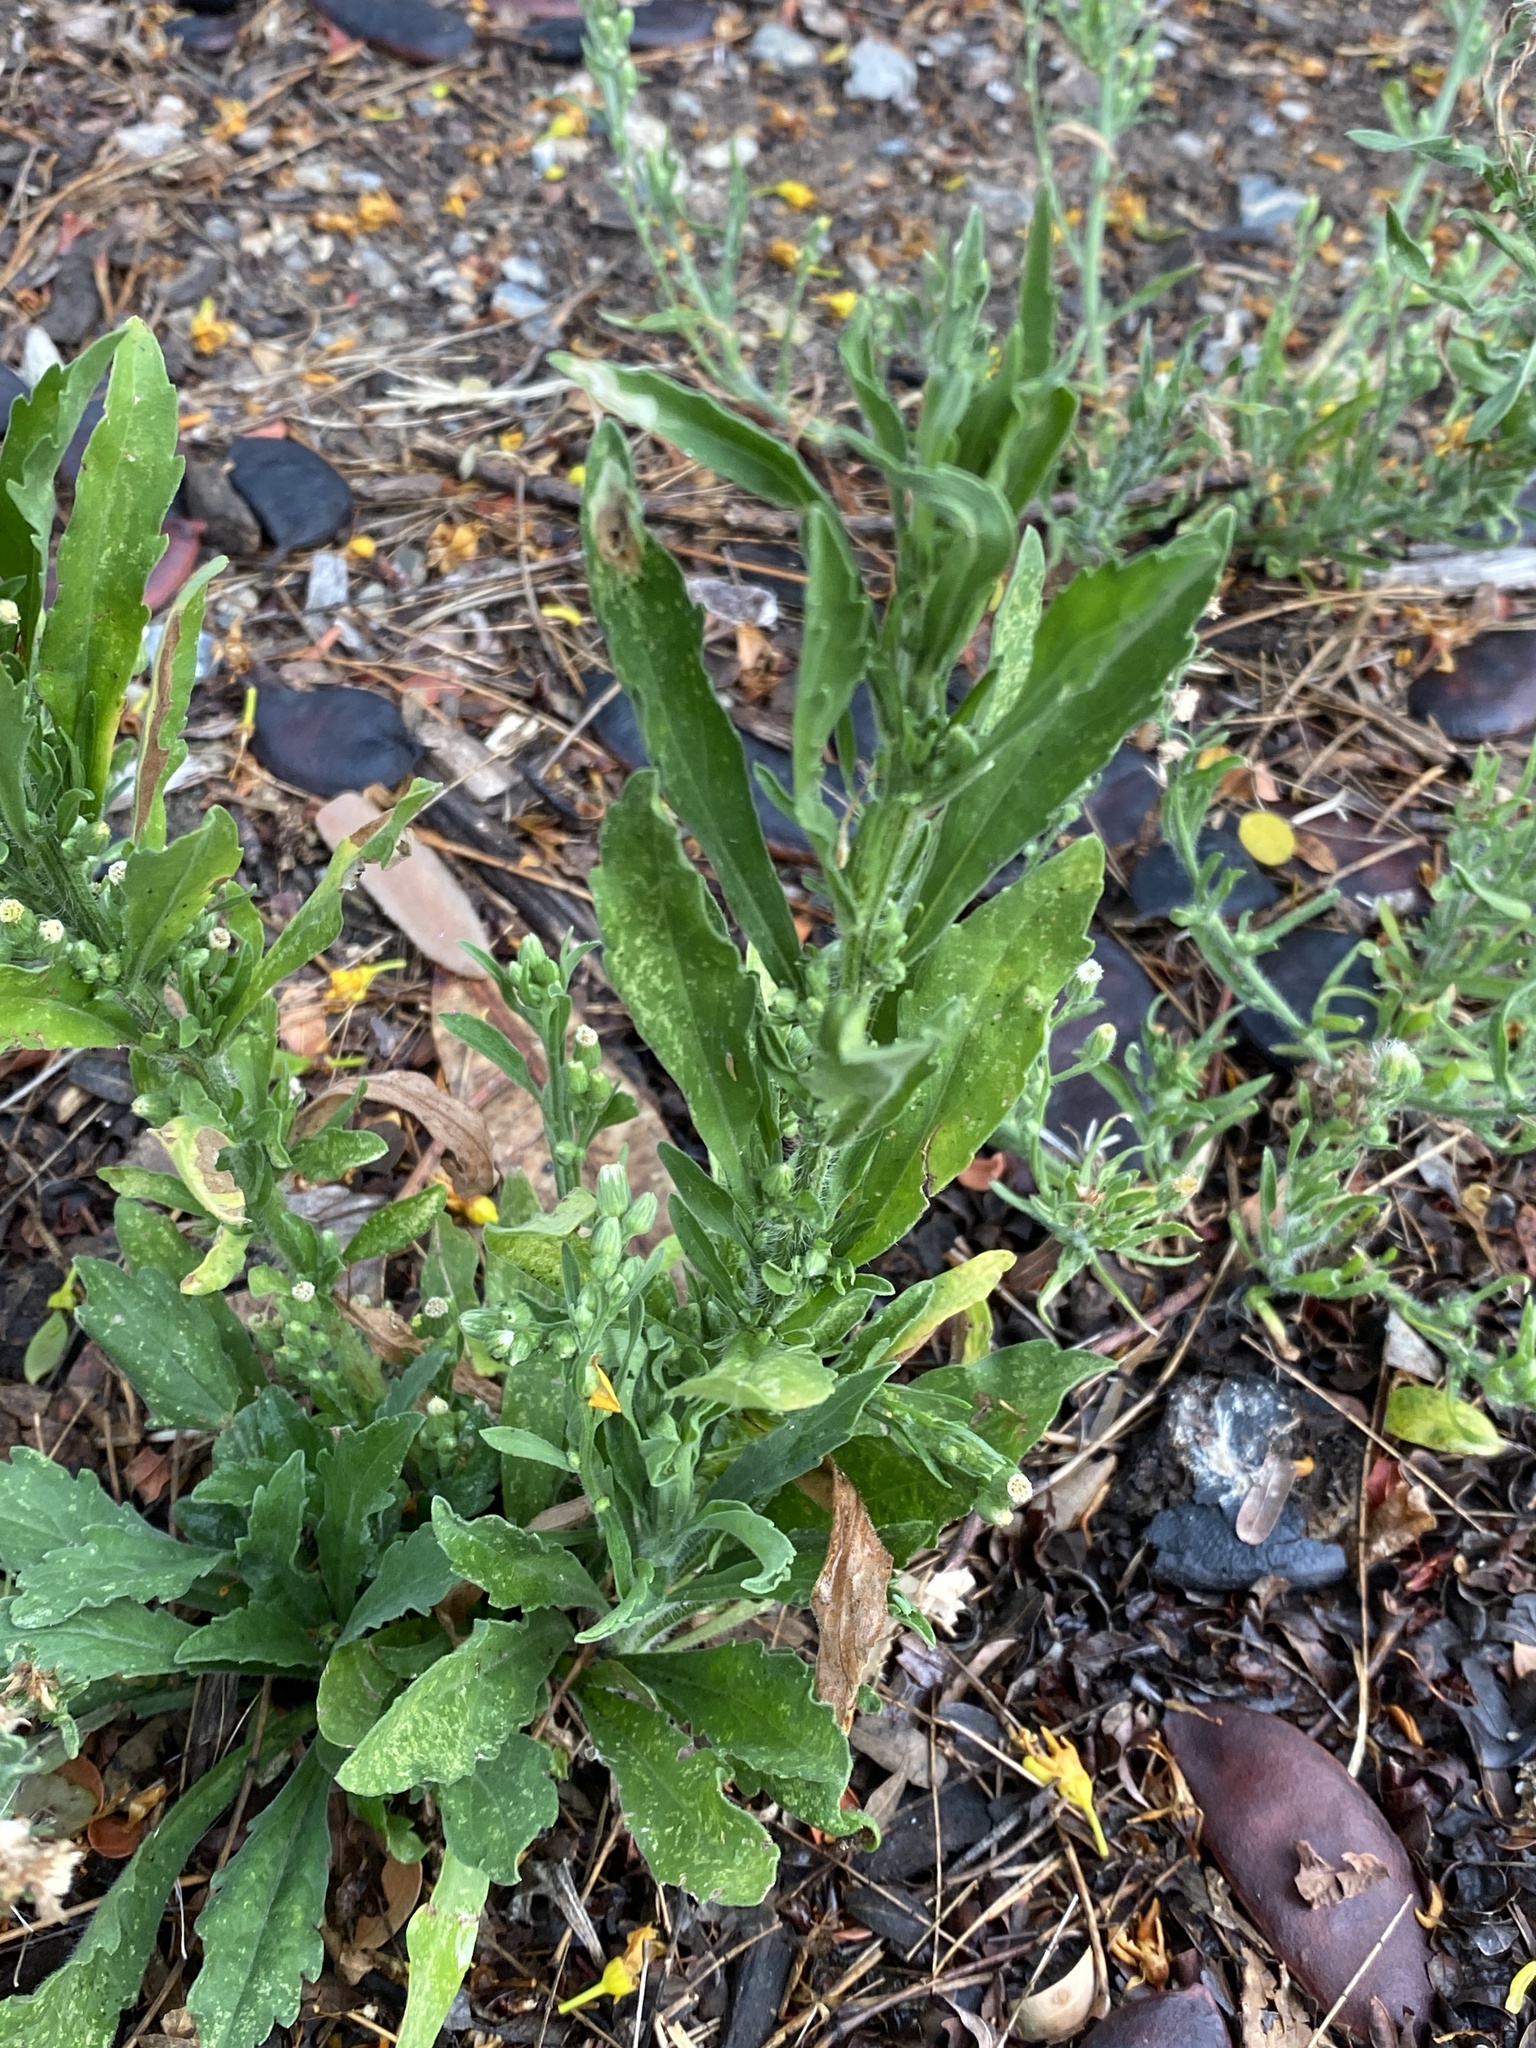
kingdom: Plantae
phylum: Tracheophyta
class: Magnoliopsida
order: Asterales
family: Asteraceae
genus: Erigeron
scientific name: Erigeron bonariensis
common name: Argentine fleabane
